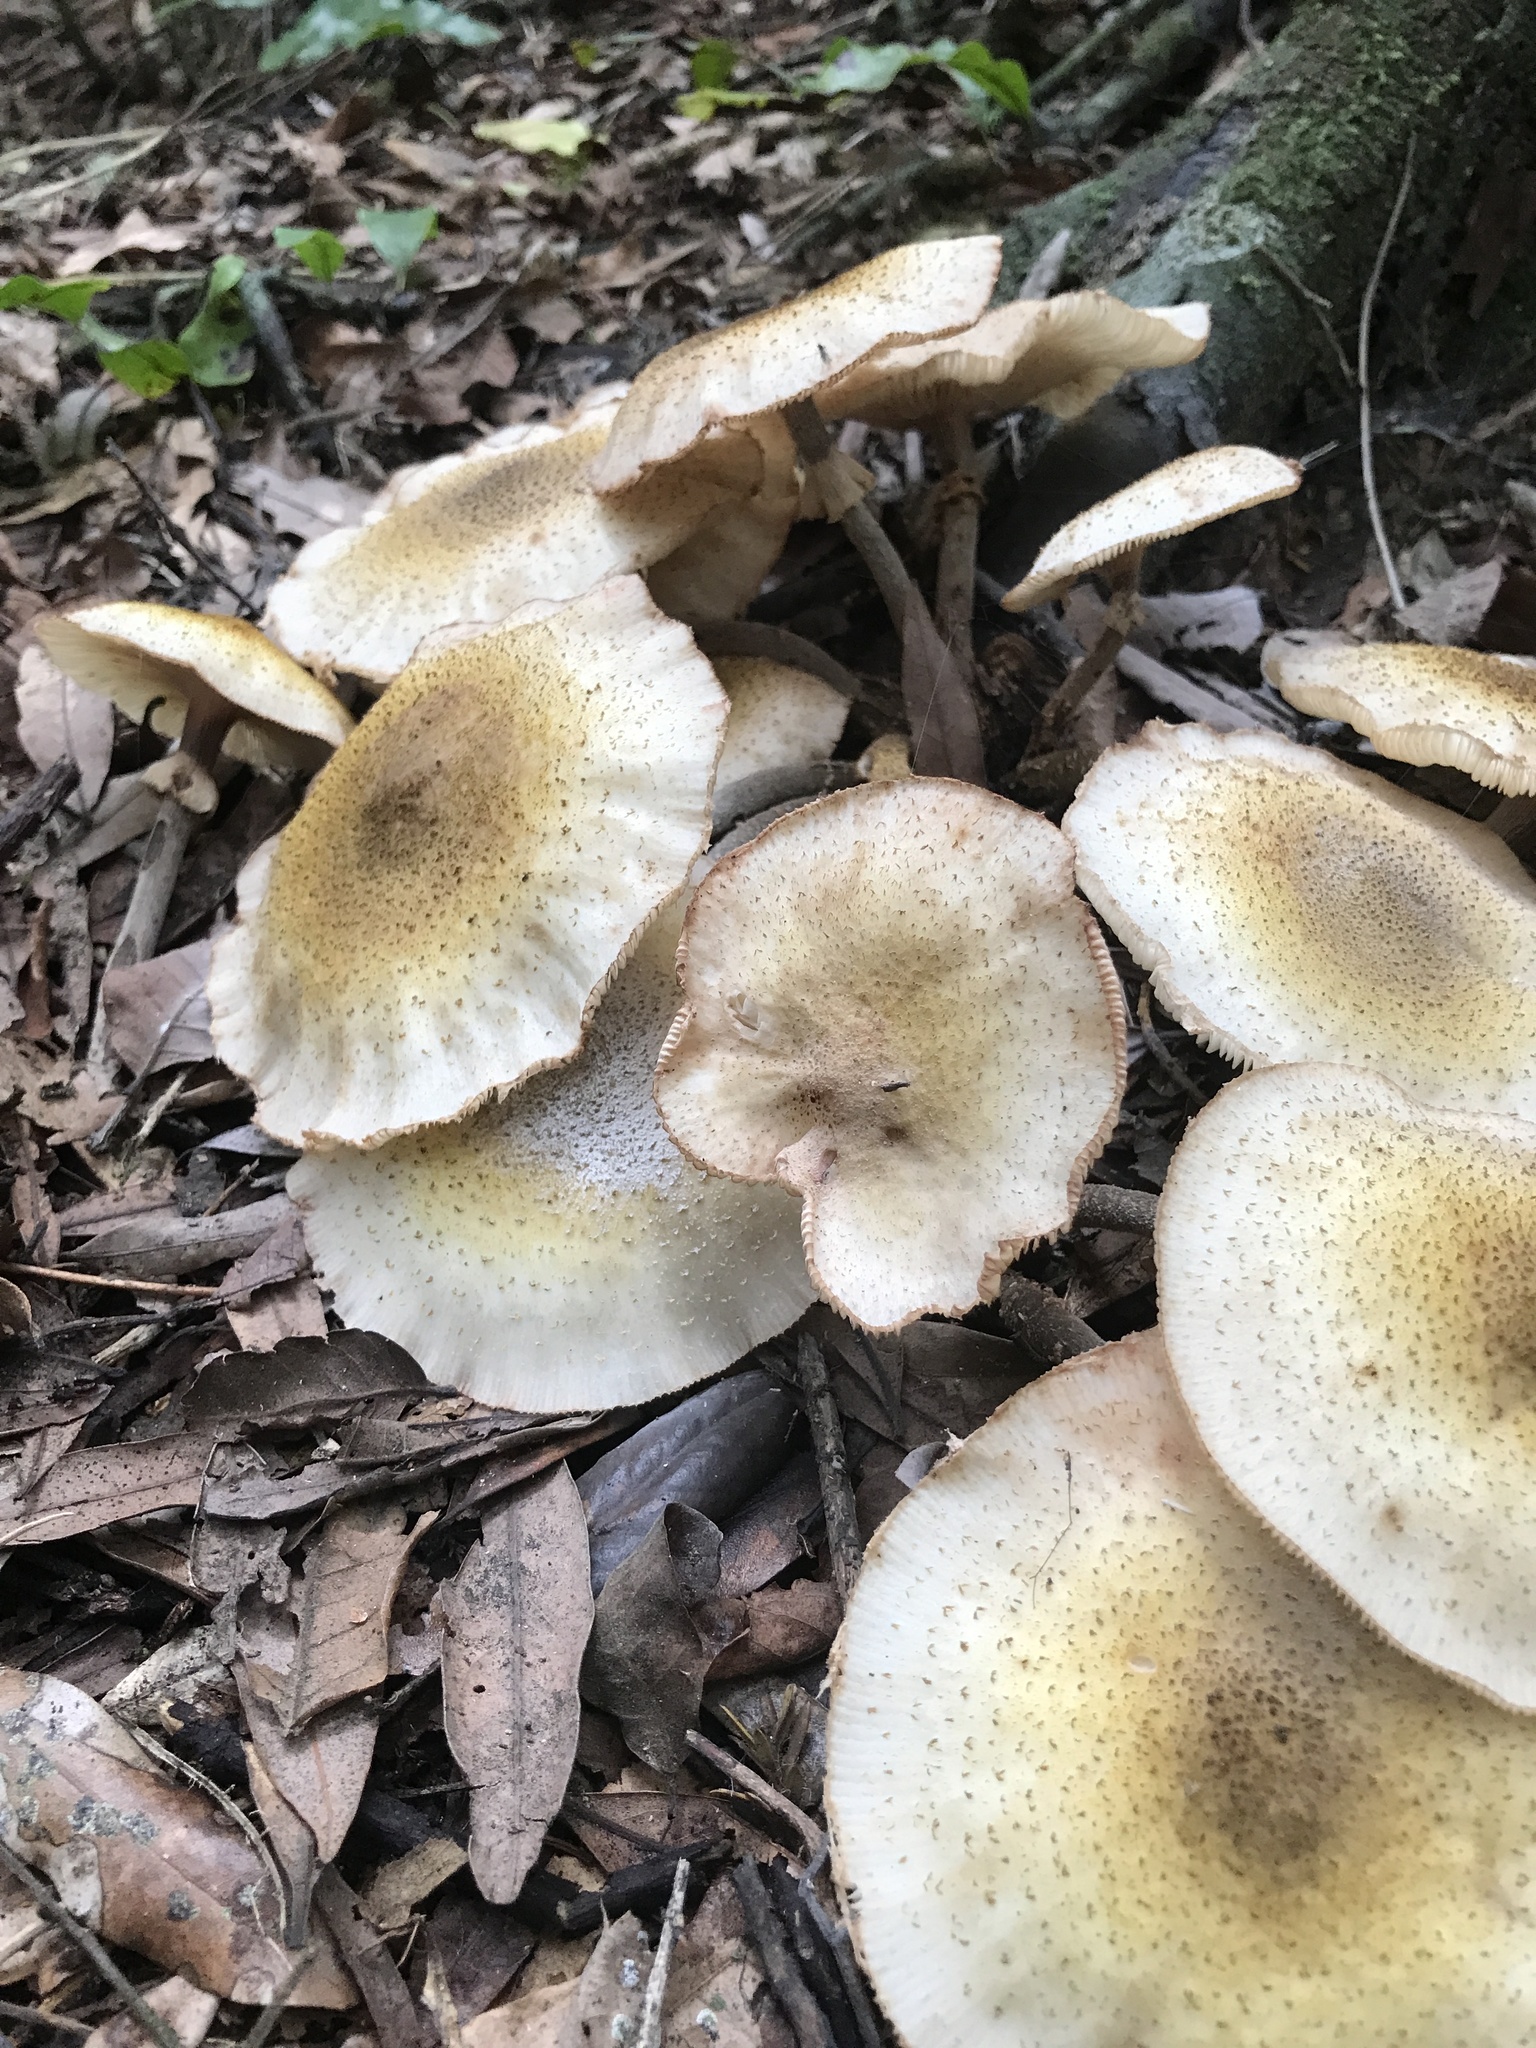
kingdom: Fungi
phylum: Basidiomycota
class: Agaricomycetes
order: Agaricales
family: Physalacriaceae
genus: Armillaria
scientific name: Armillaria limonea
